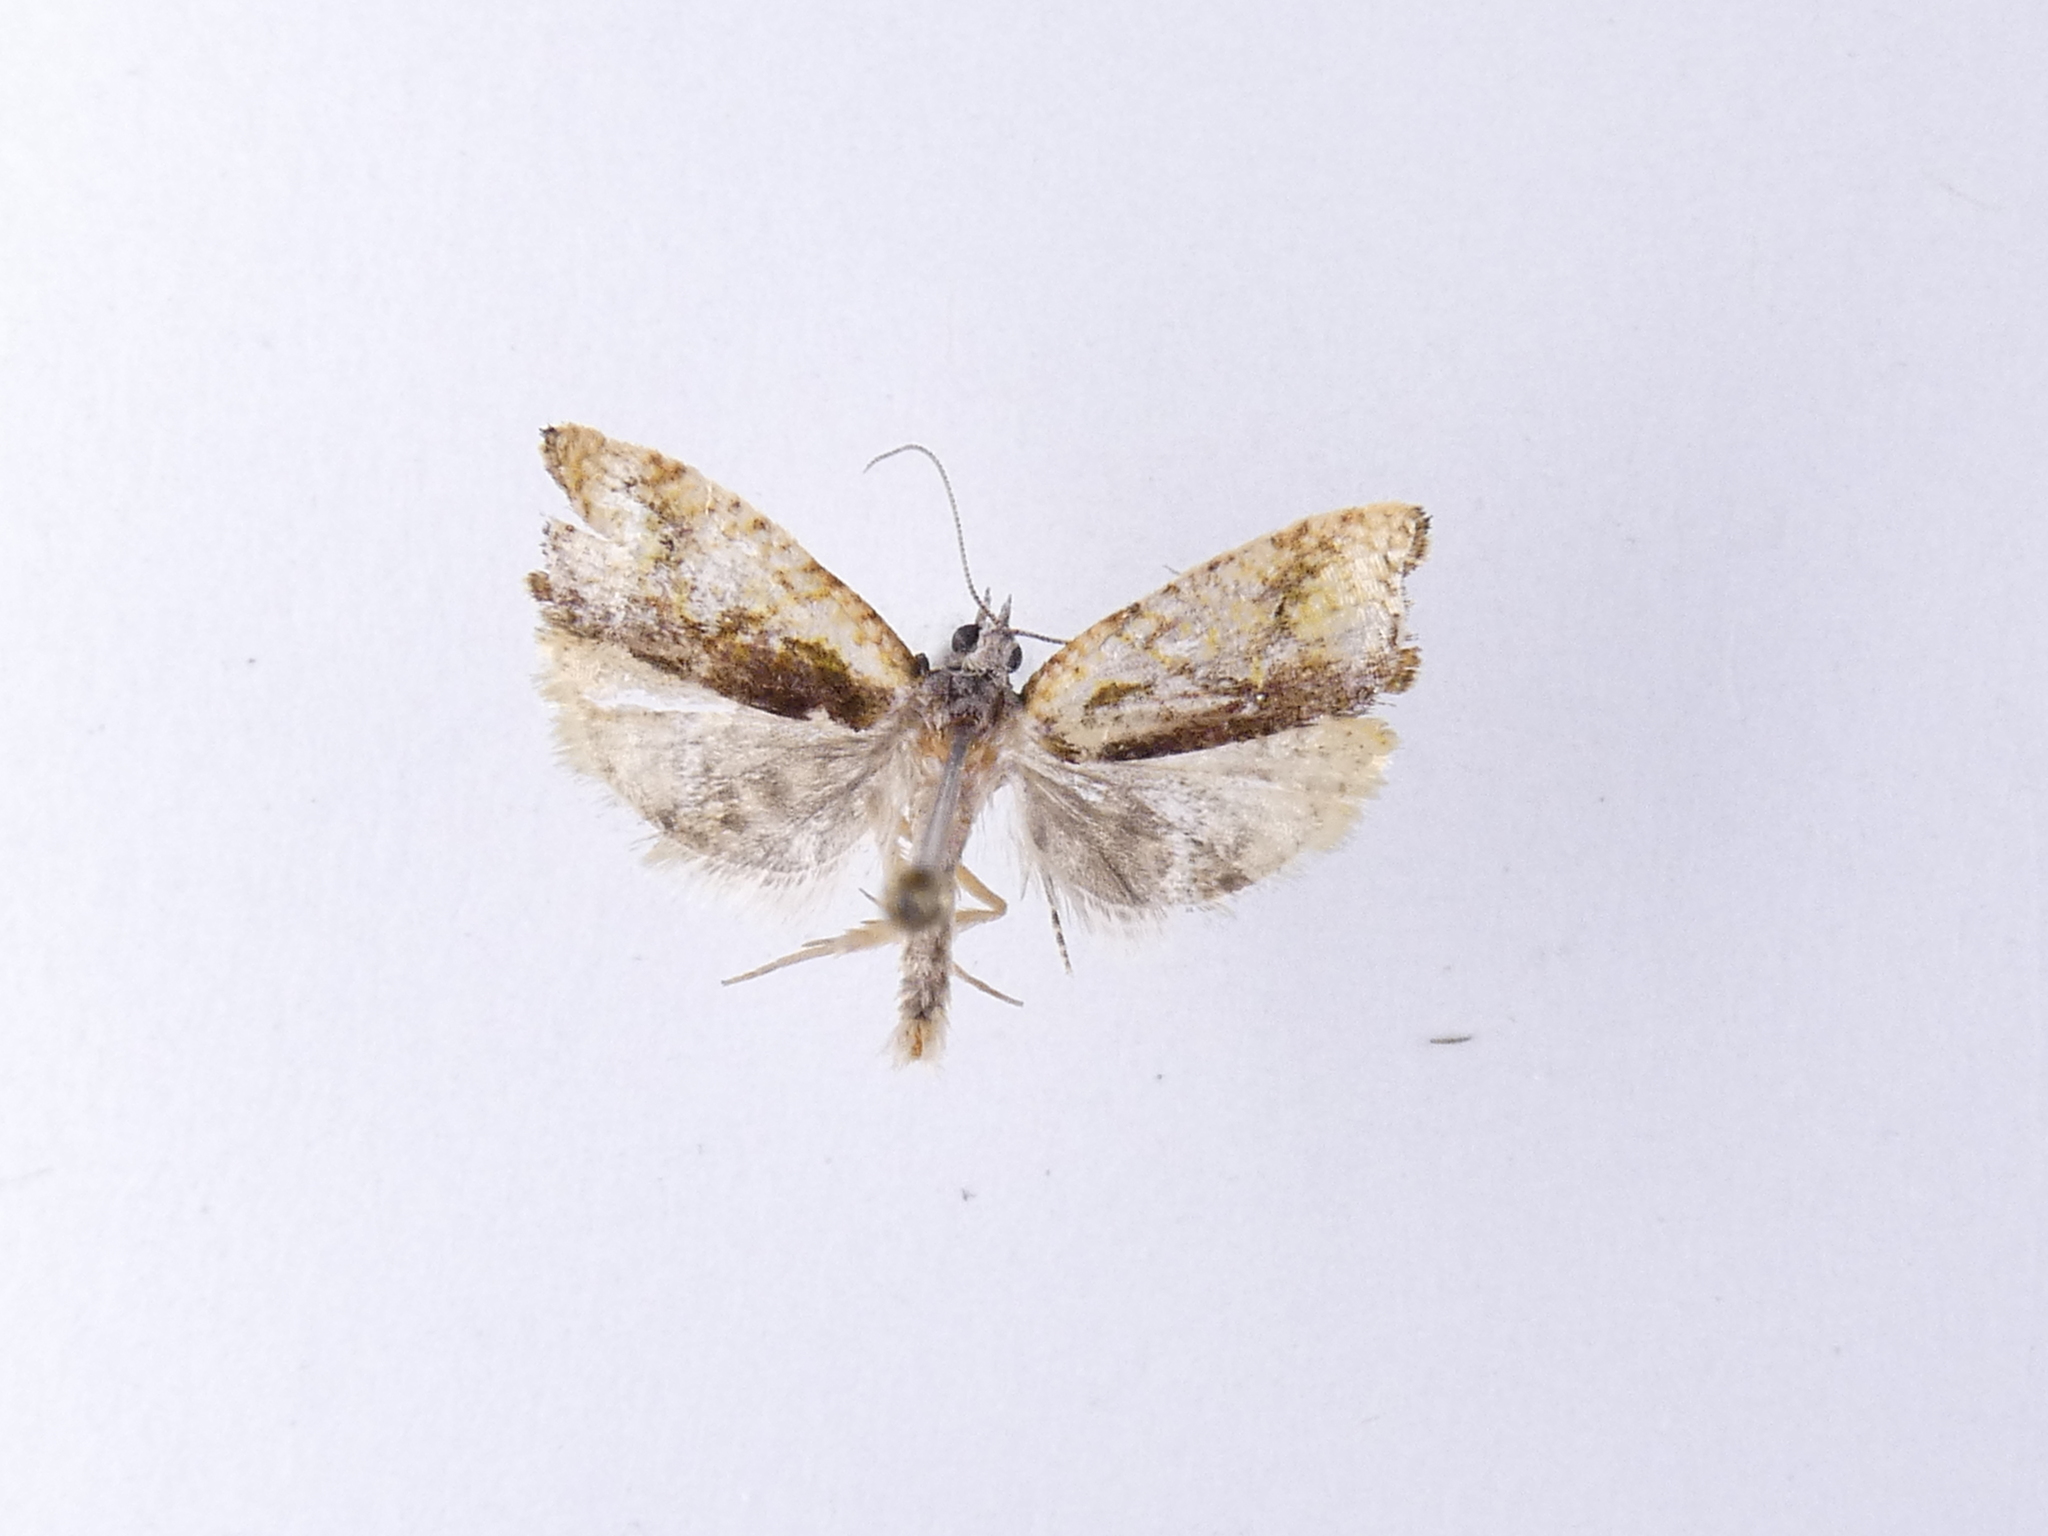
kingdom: Animalia
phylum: Arthropoda
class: Insecta
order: Lepidoptera
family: Tortricidae
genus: Pyrgotis
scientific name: Pyrgotis plagiatana
